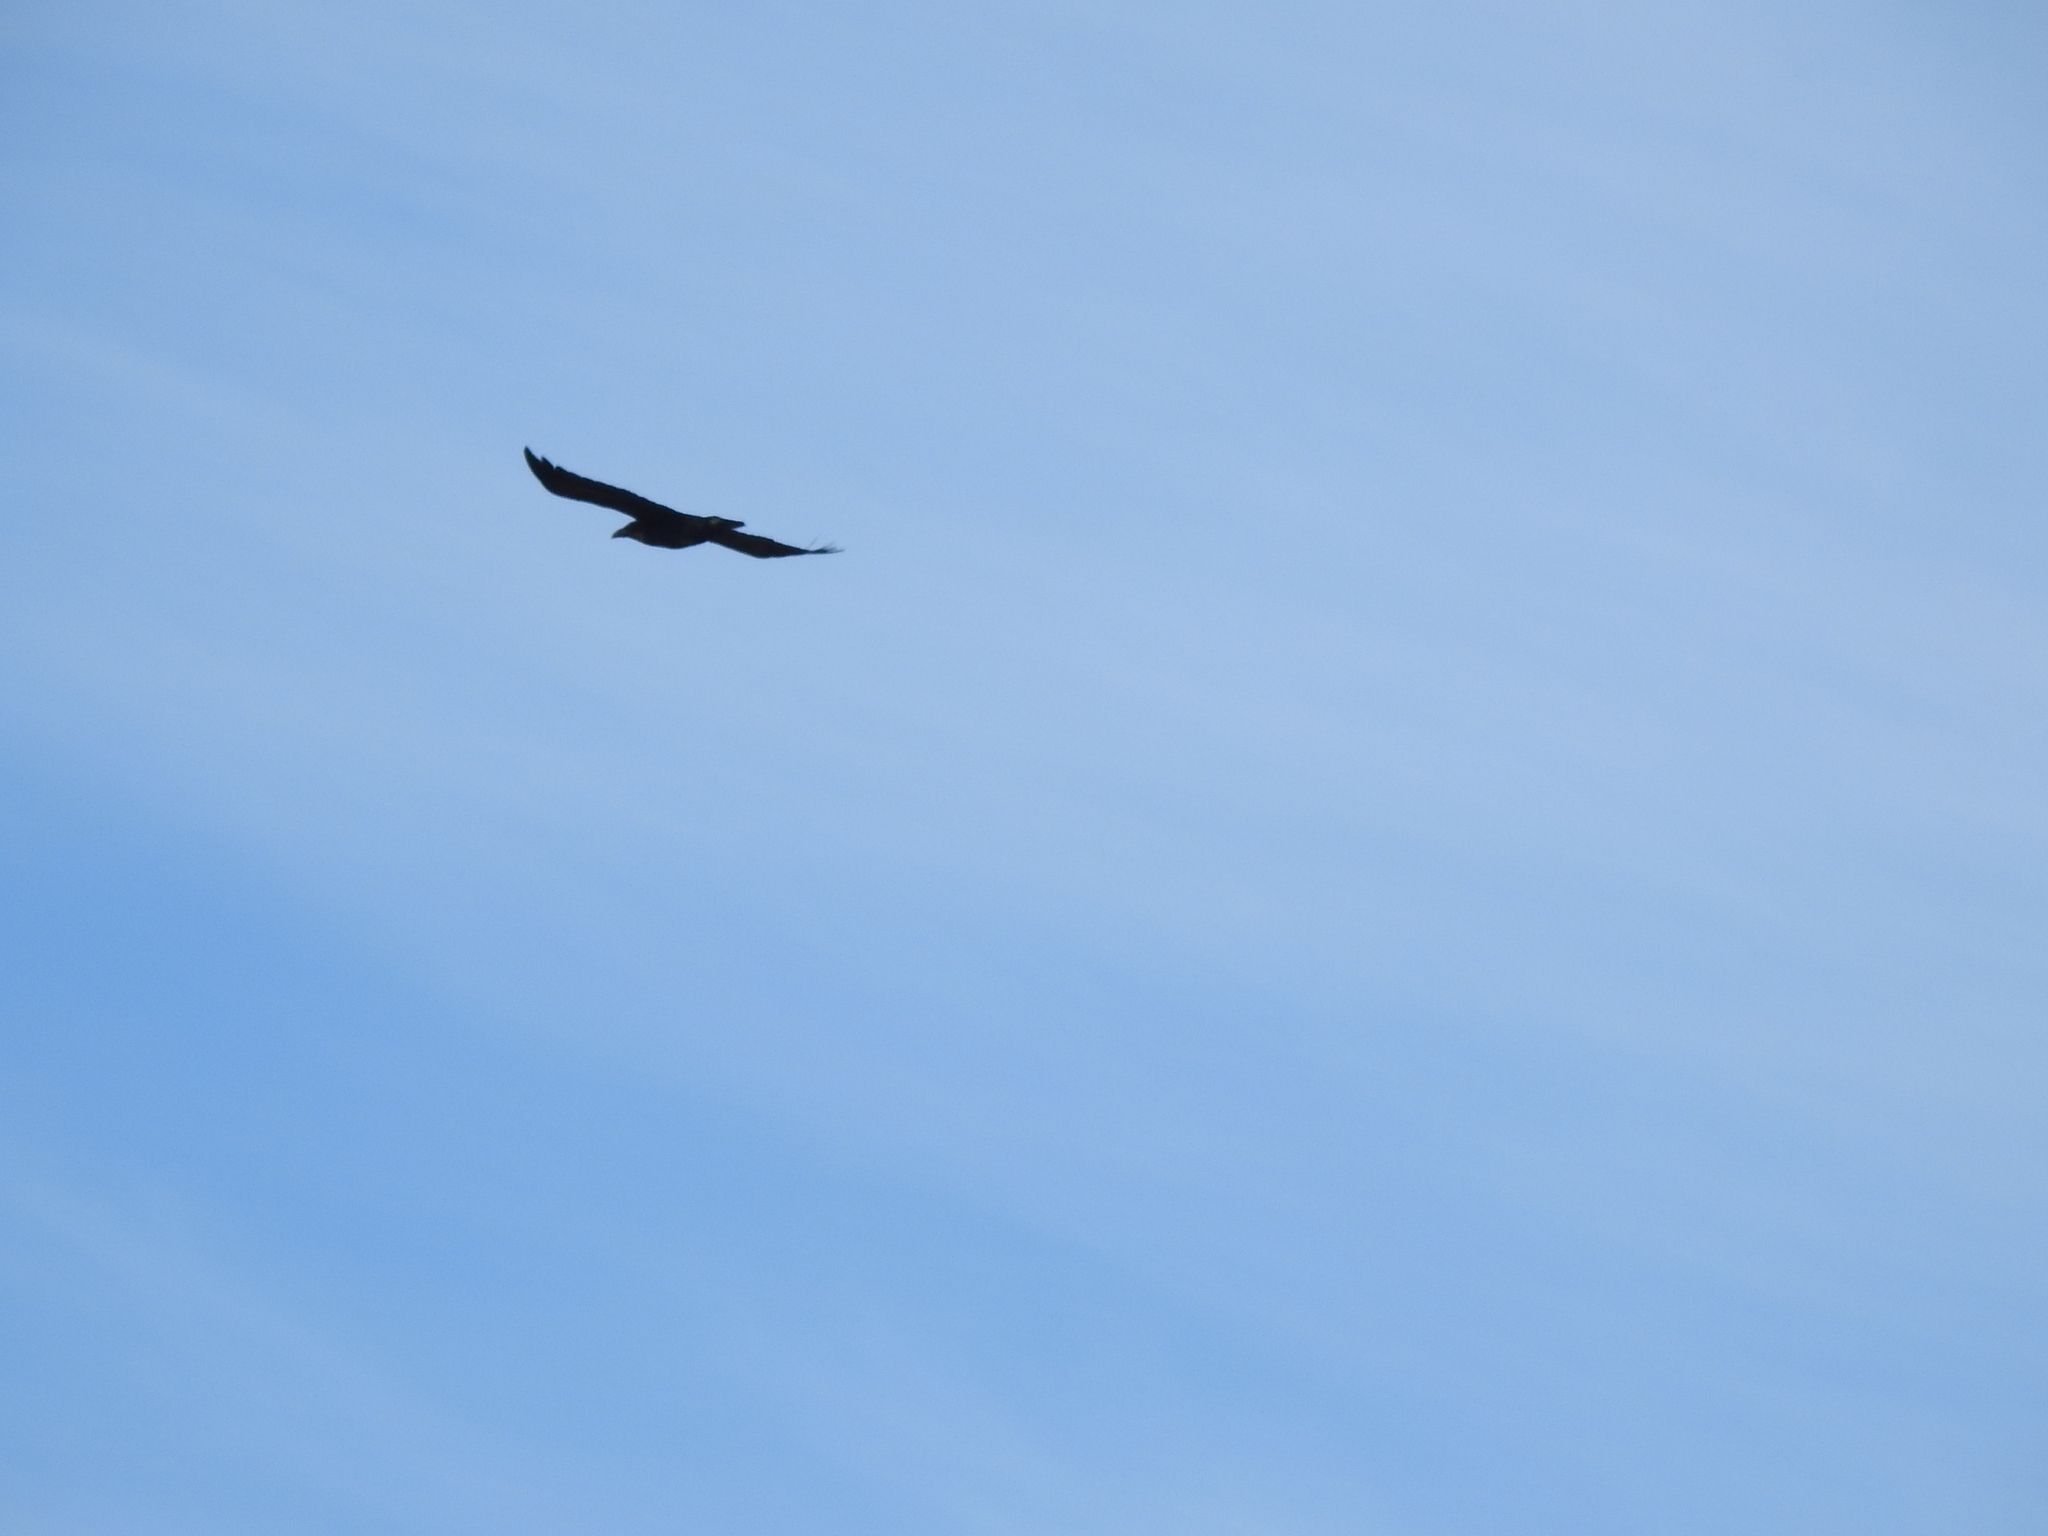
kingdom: Animalia
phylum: Chordata
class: Aves
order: Passeriformes
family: Corvidae
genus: Corvus
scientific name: Corvus corax
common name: Common raven
